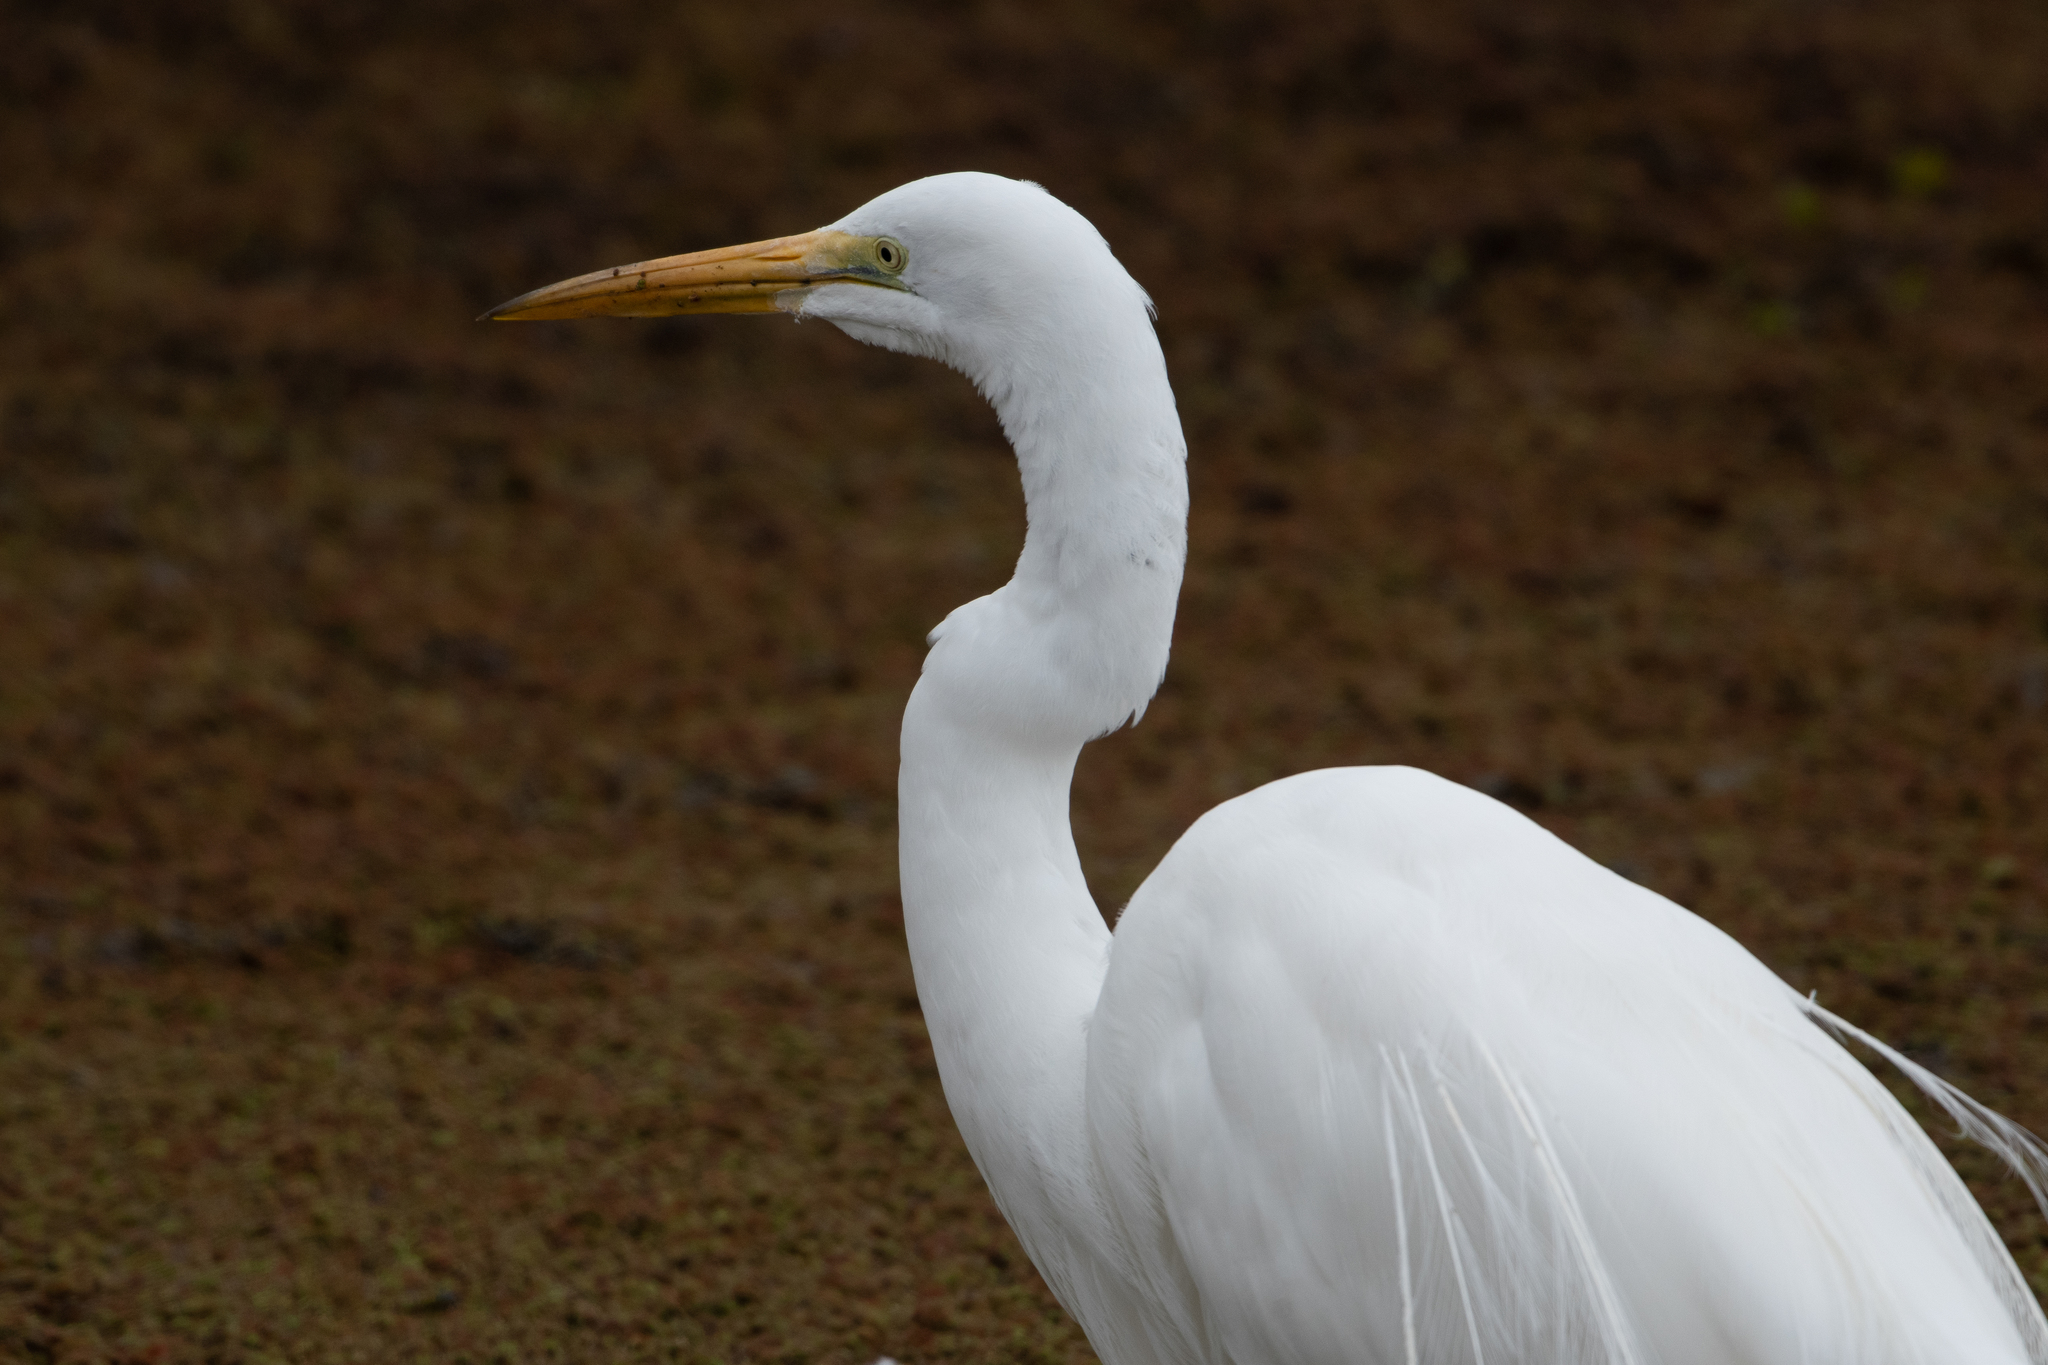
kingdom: Animalia
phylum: Chordata
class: Aves
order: Pelecaniformes
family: Ardeidae
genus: Ardea
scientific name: Ardea alba
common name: Great egret
